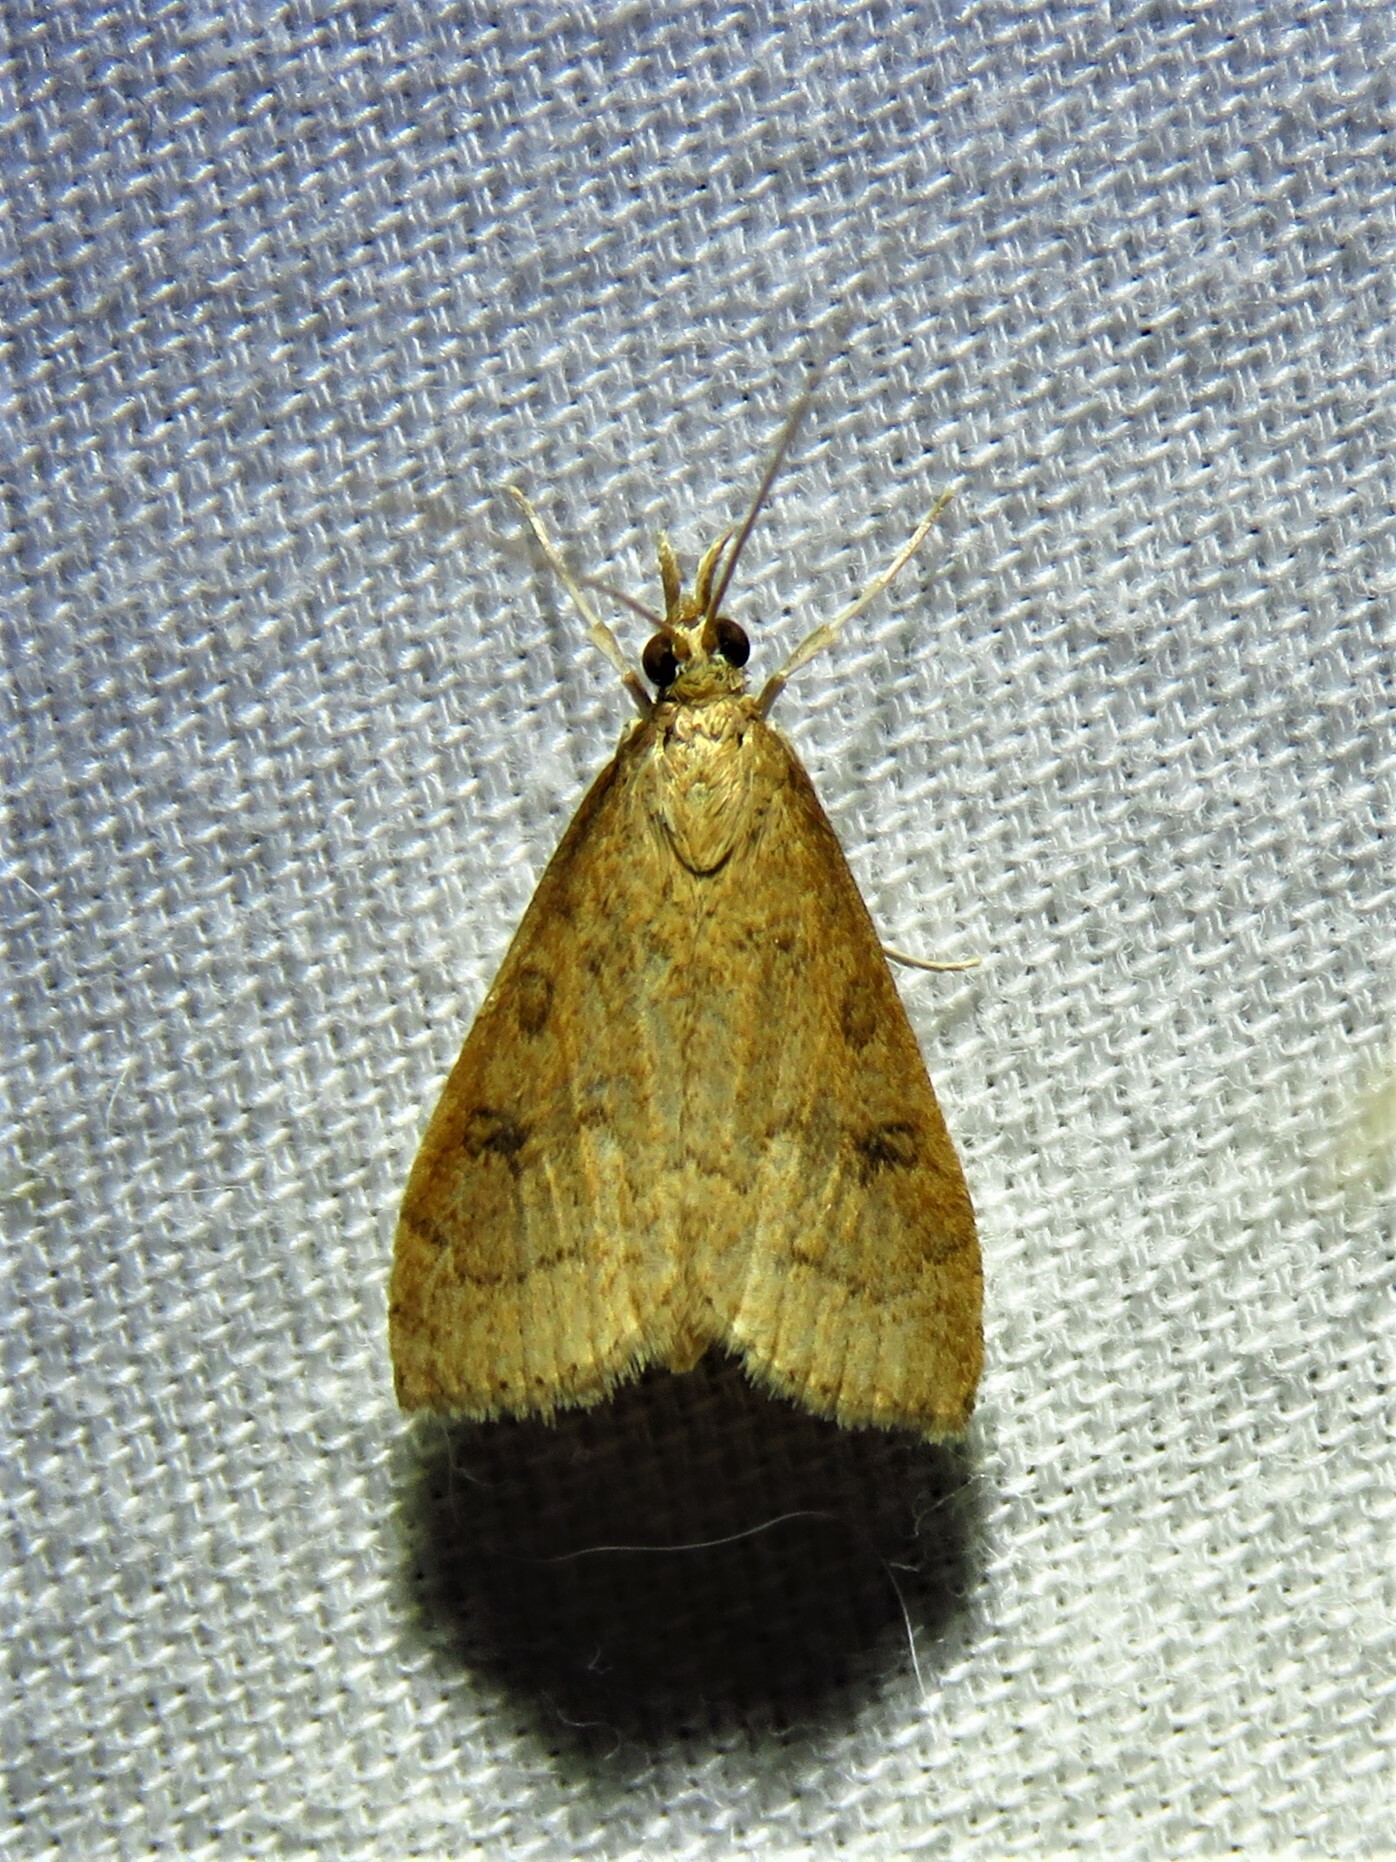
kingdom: Animalia
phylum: Arthropoda
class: Insecta
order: Lepidoptera
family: Crambidae
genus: Udea
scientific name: Udea rubigalis
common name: Celery leaftier moth
